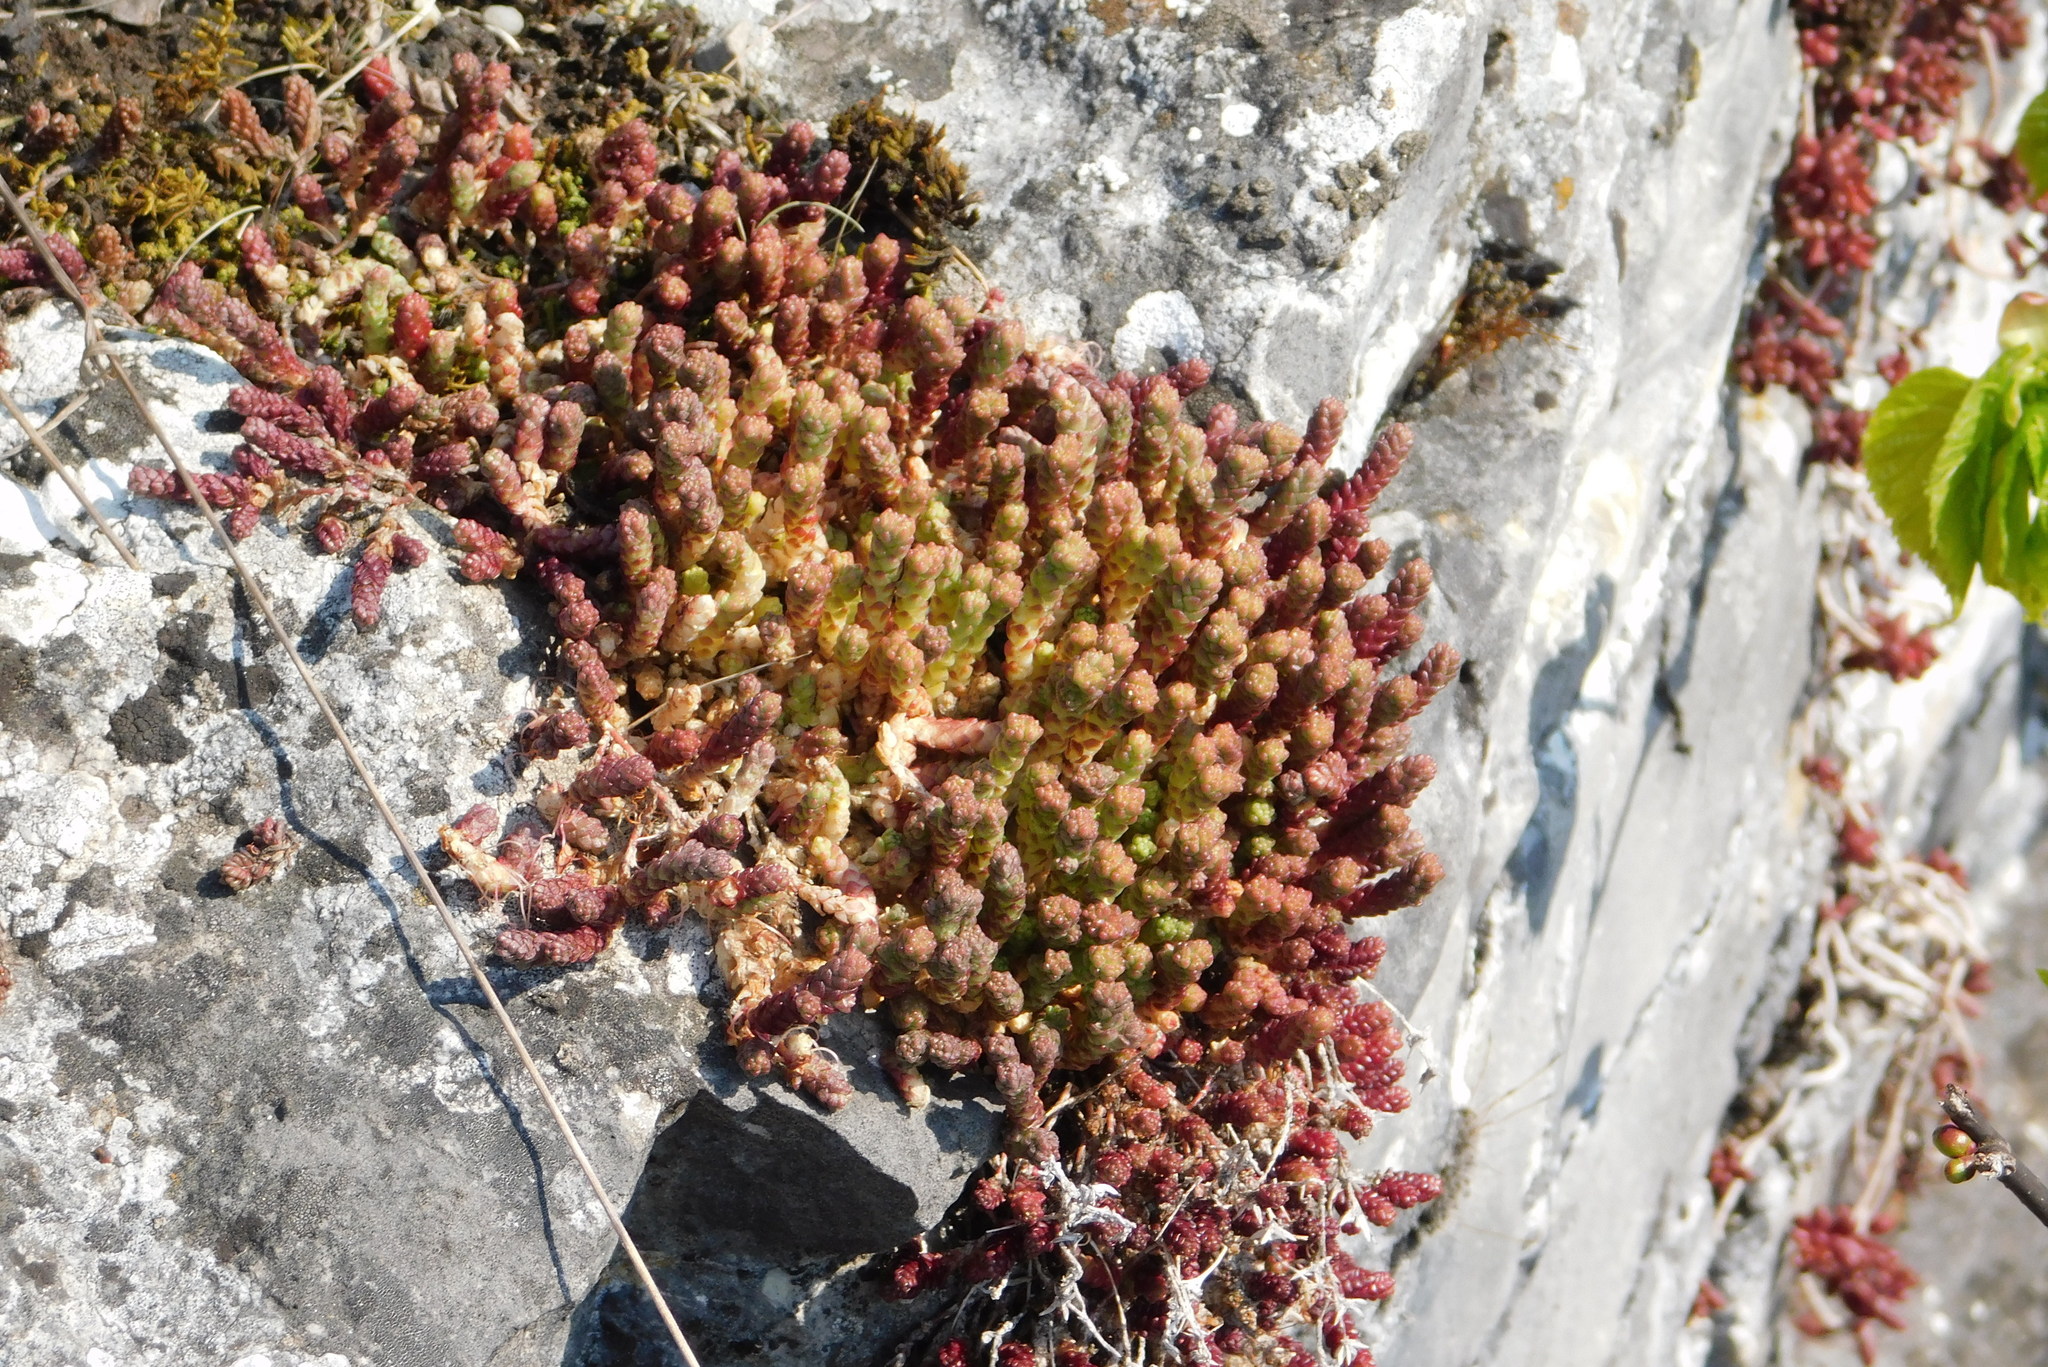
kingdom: Plantae
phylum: Tracheophyta
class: Magnoliopsida
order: Saxifragales
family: Crassulaceae
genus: Sedum
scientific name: Sedum acre
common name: Biting stonecrop
